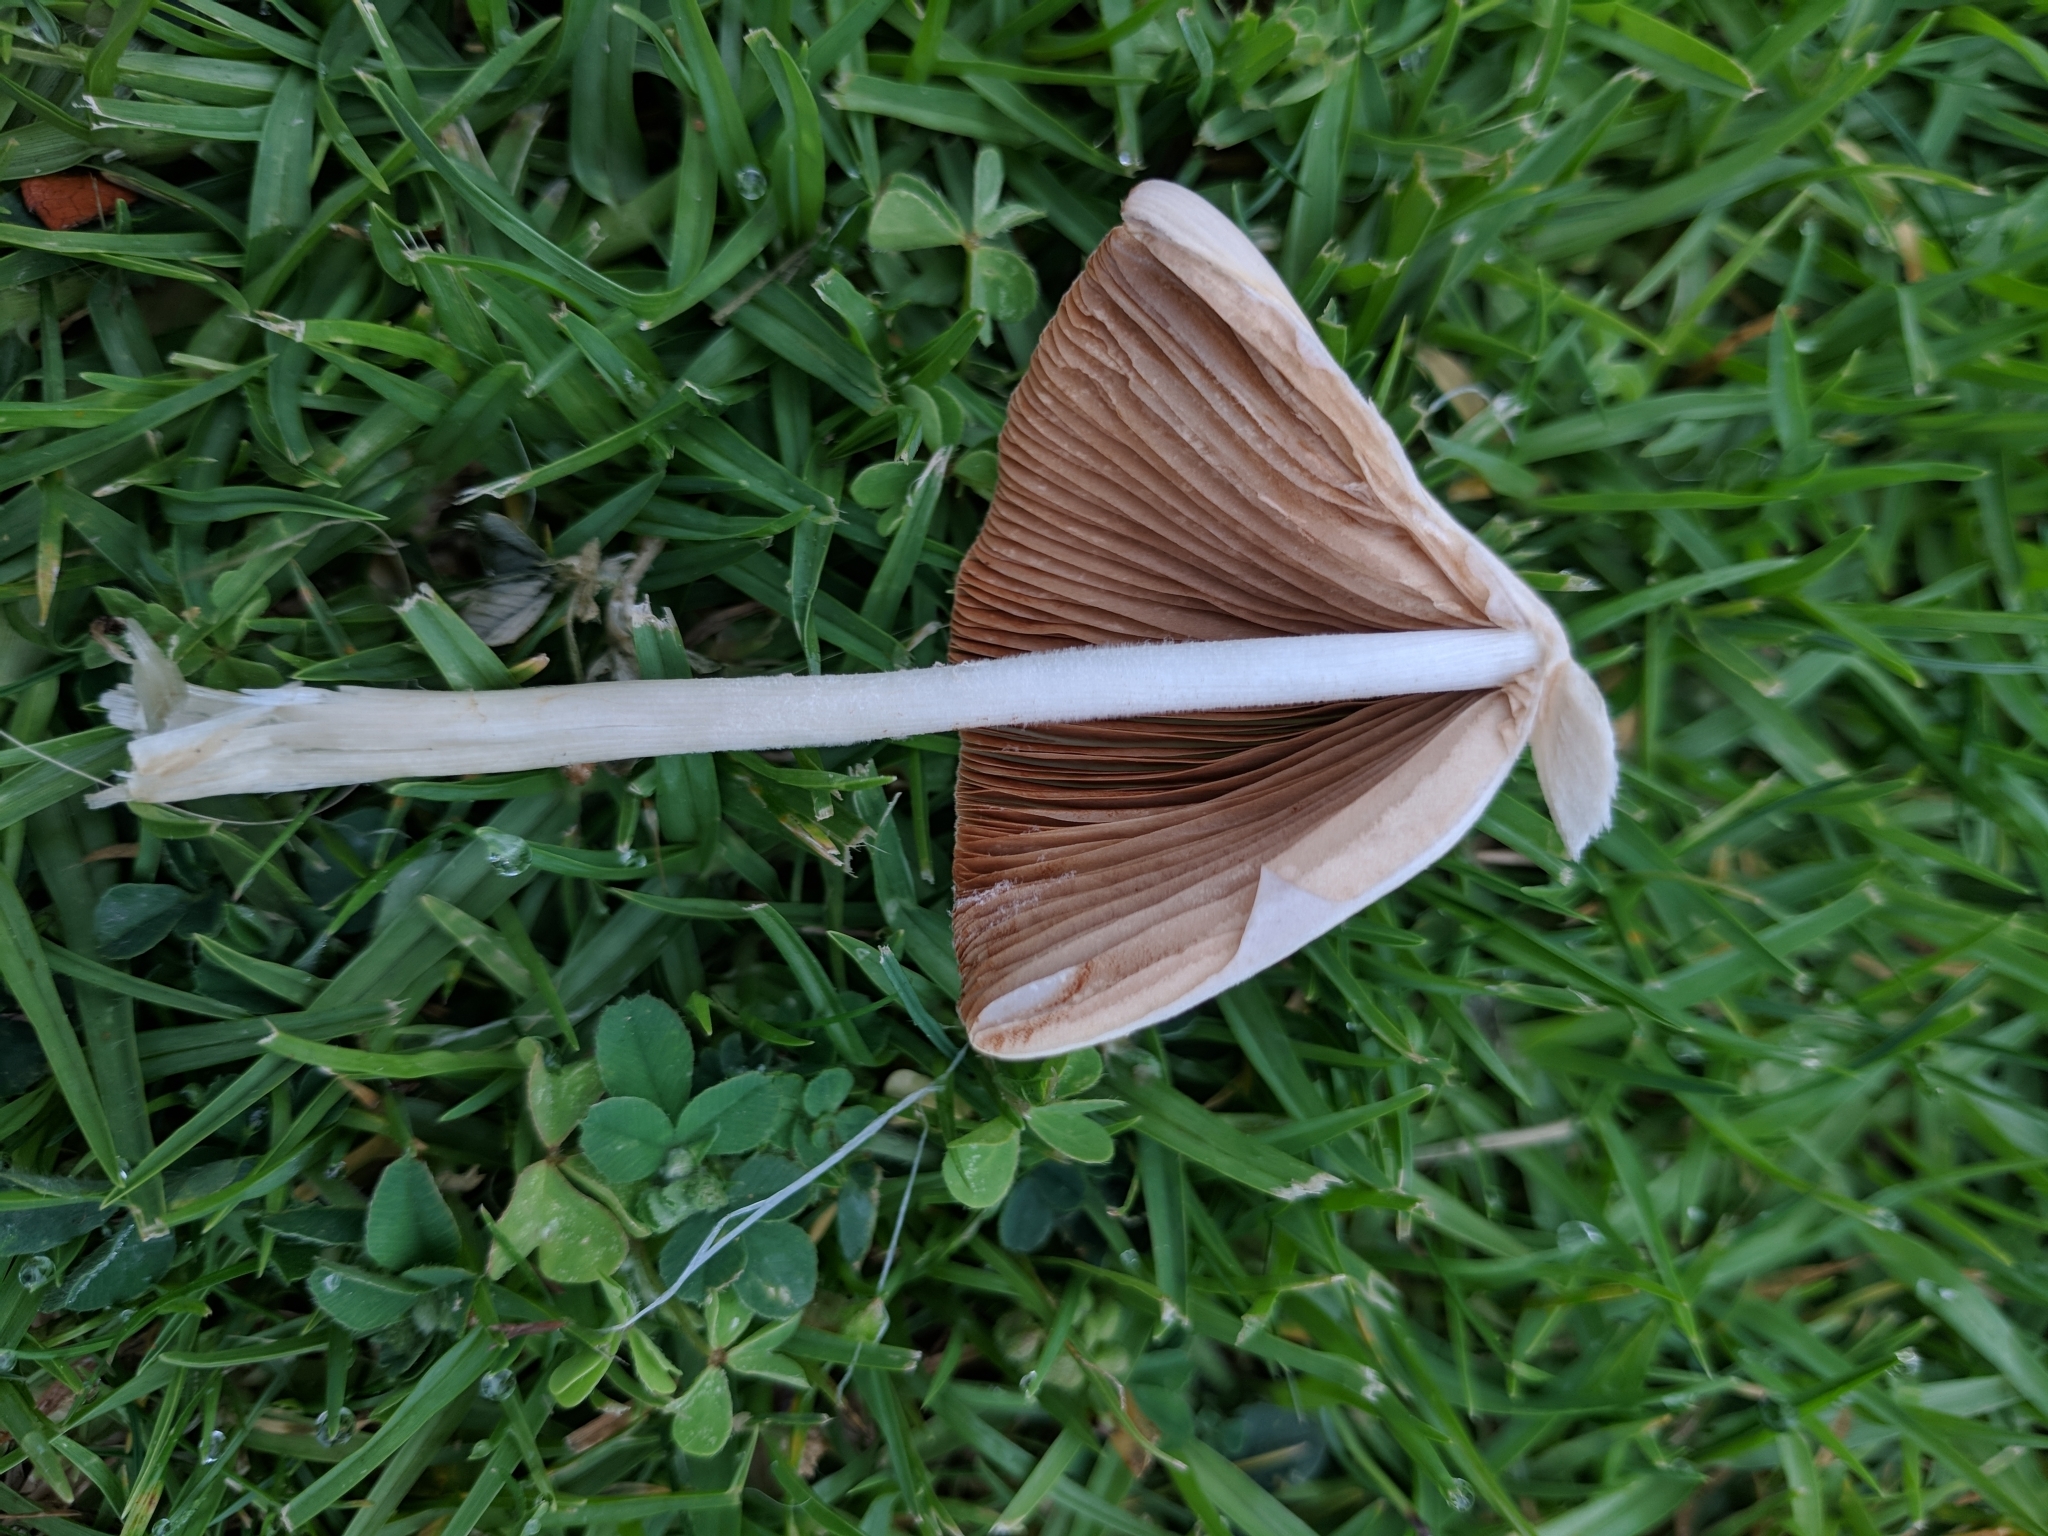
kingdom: Fungi
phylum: Basidiomycota
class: Agaricomycetes
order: Agaricales
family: Bolbitiaceae
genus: Conocybe
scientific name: Conocybe apala
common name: Milky conecap
